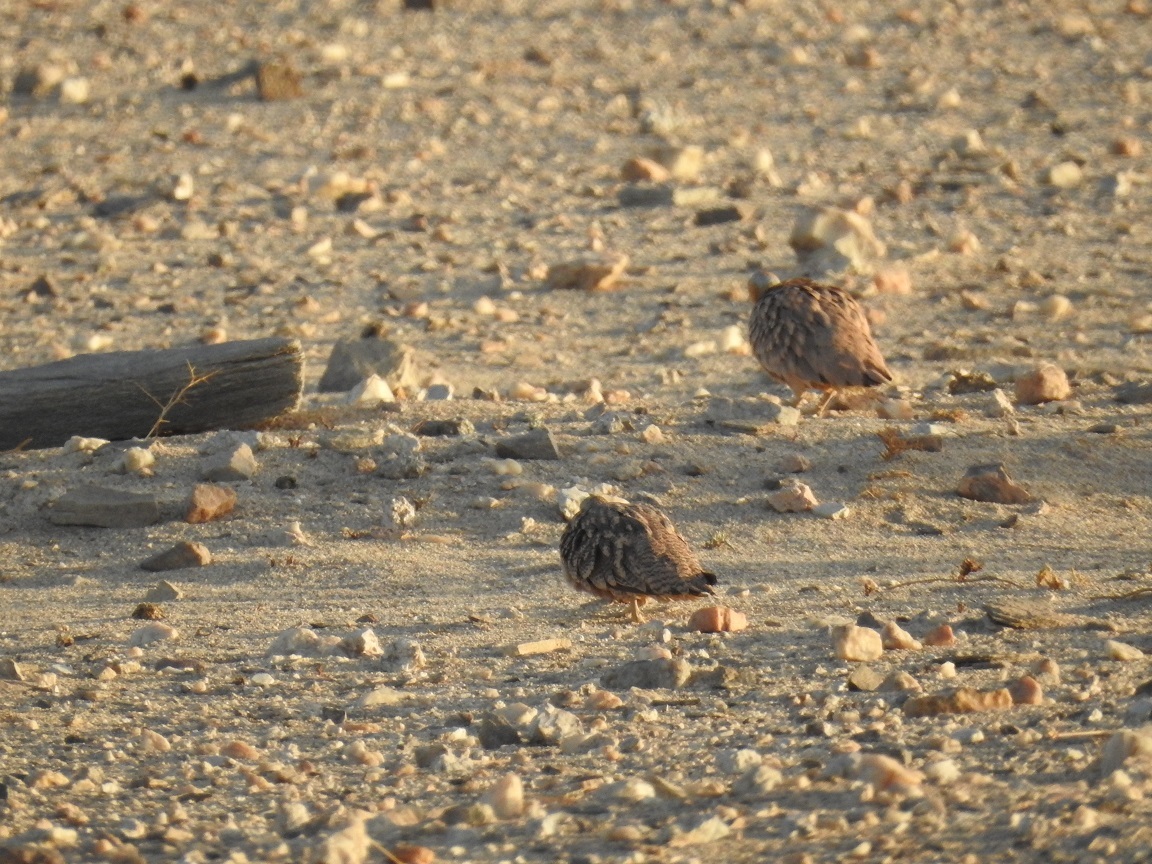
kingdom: Animalia
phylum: Chordata
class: Aves
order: Pteroclidiformes
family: Pteroclididae
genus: Pterocles
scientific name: Pterocles coronatus
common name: Crowned sandgrouse
